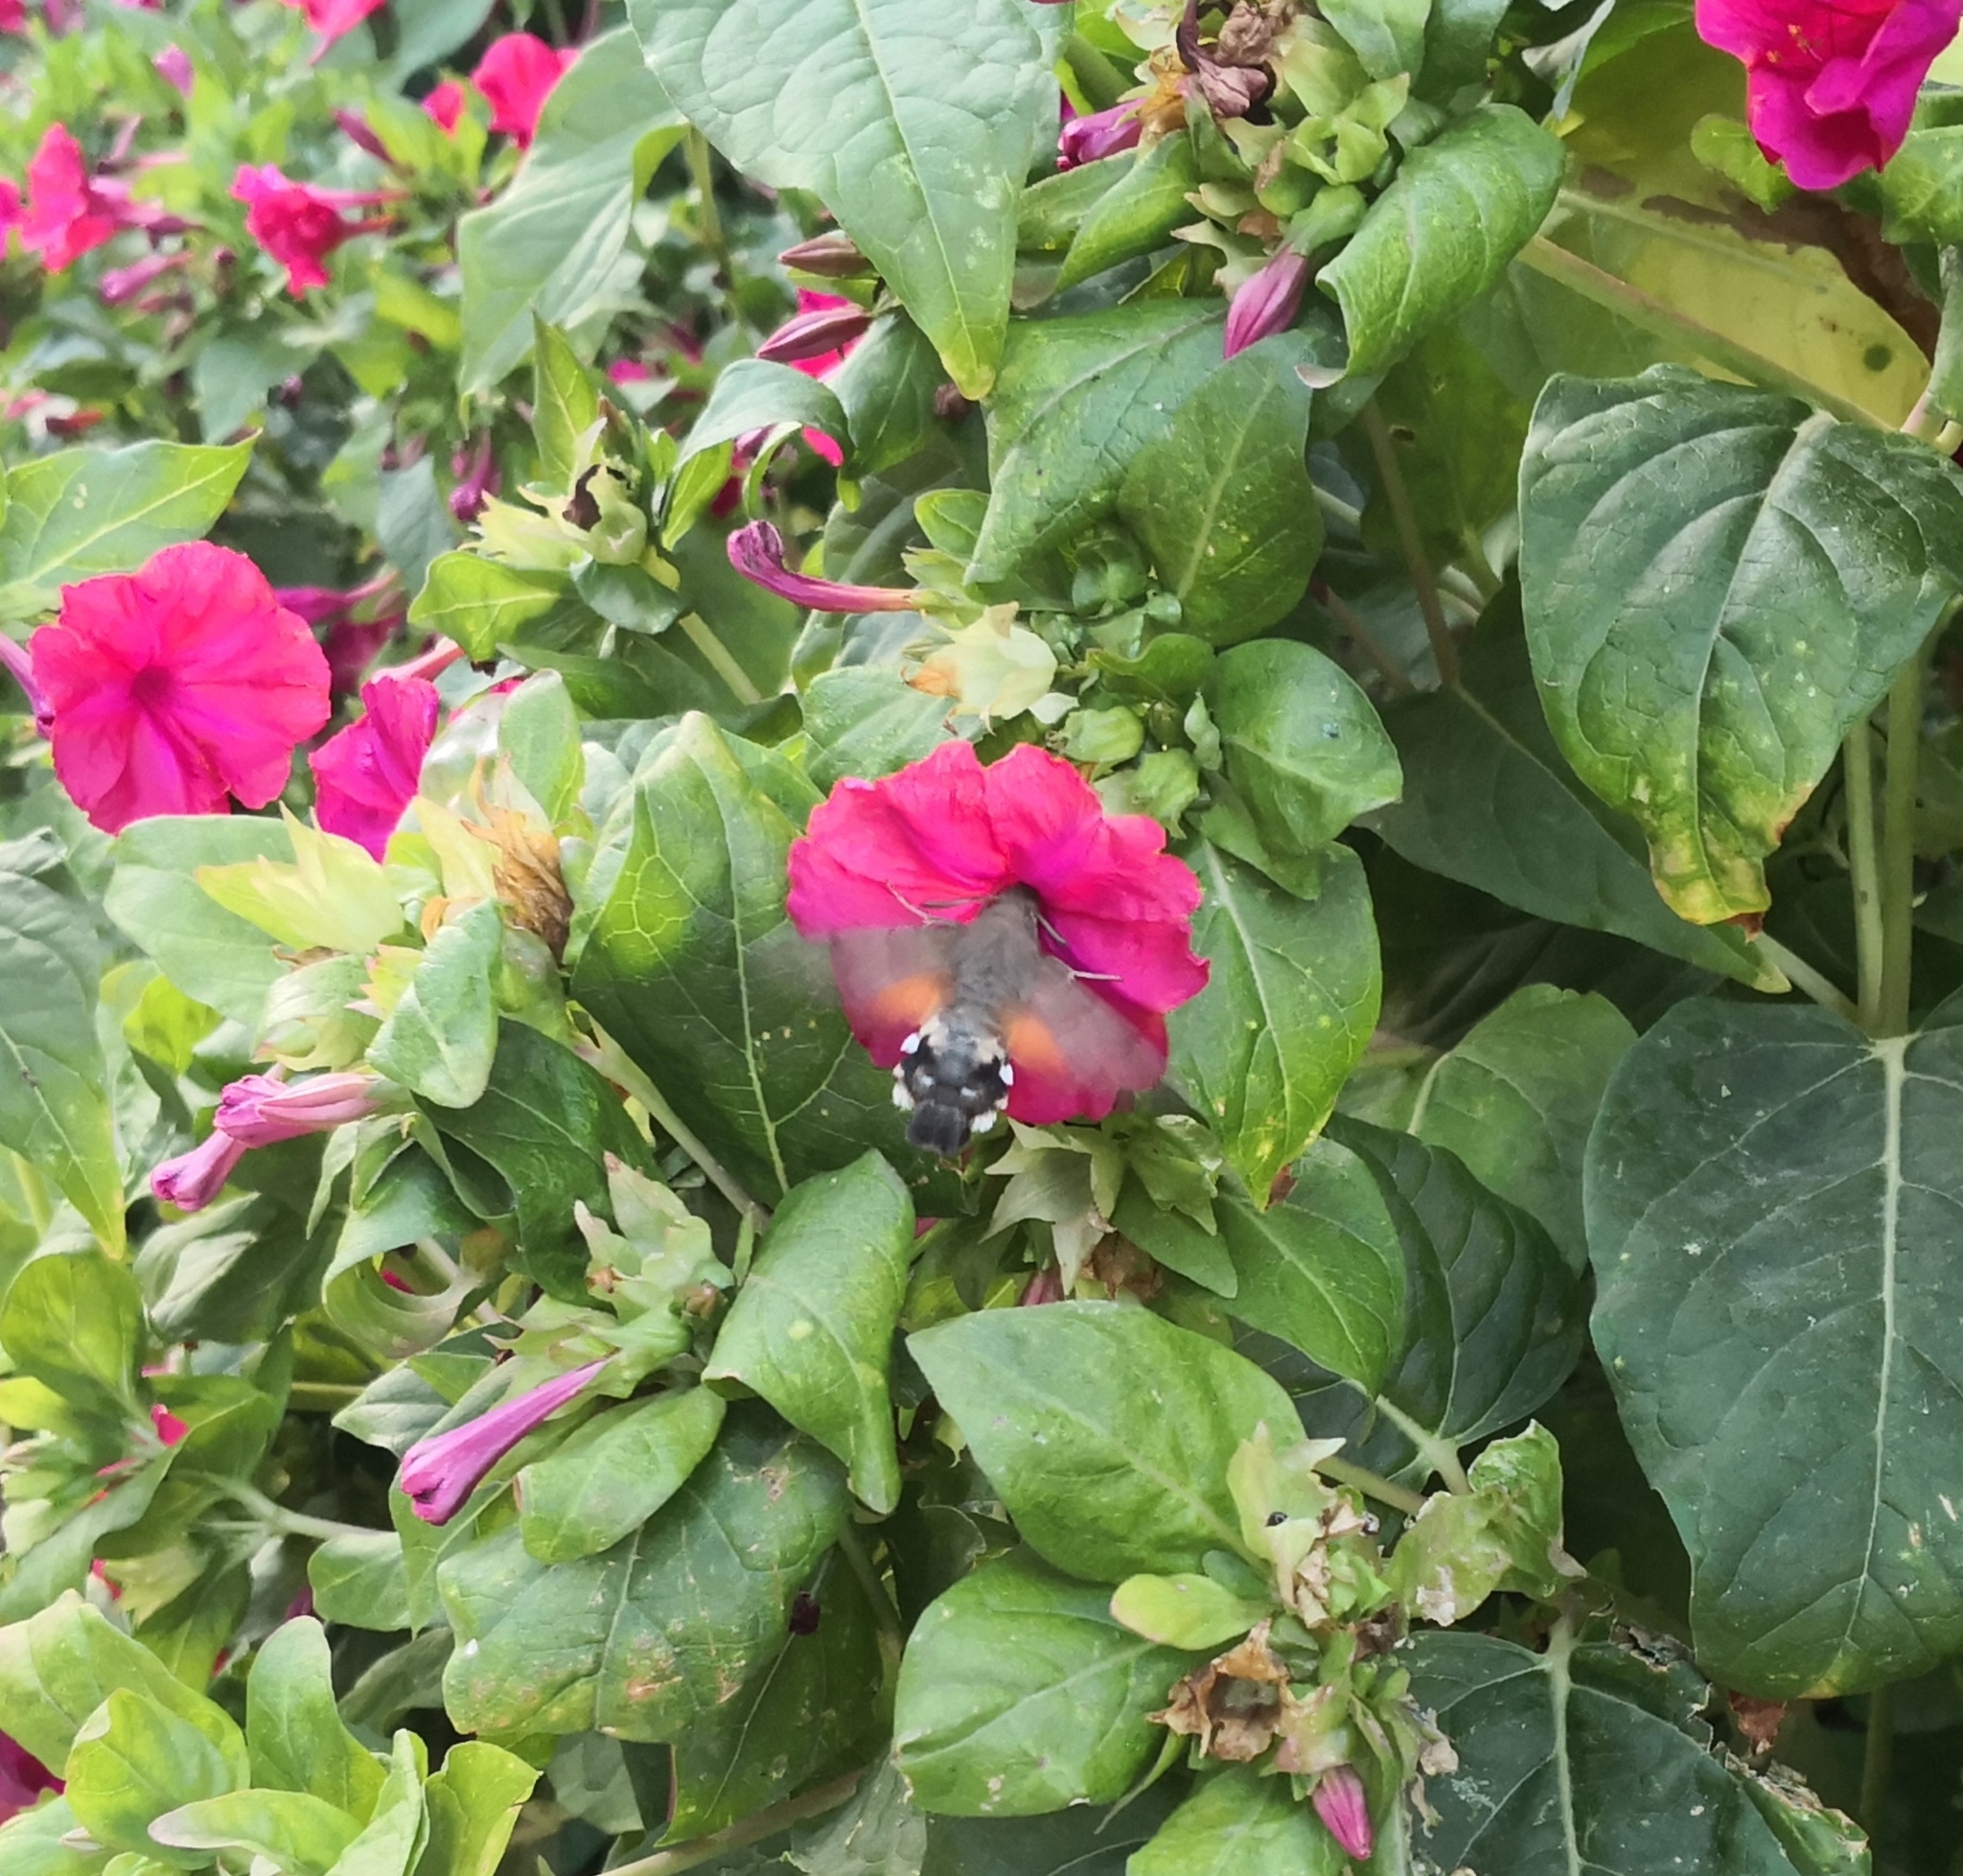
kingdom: Animalia
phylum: Arthropoda
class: Insecta
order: Lepidoptera
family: Sphingidae
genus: Macroglossum
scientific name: Macroglossum stellatarum
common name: Humming-bird hawk-moth
